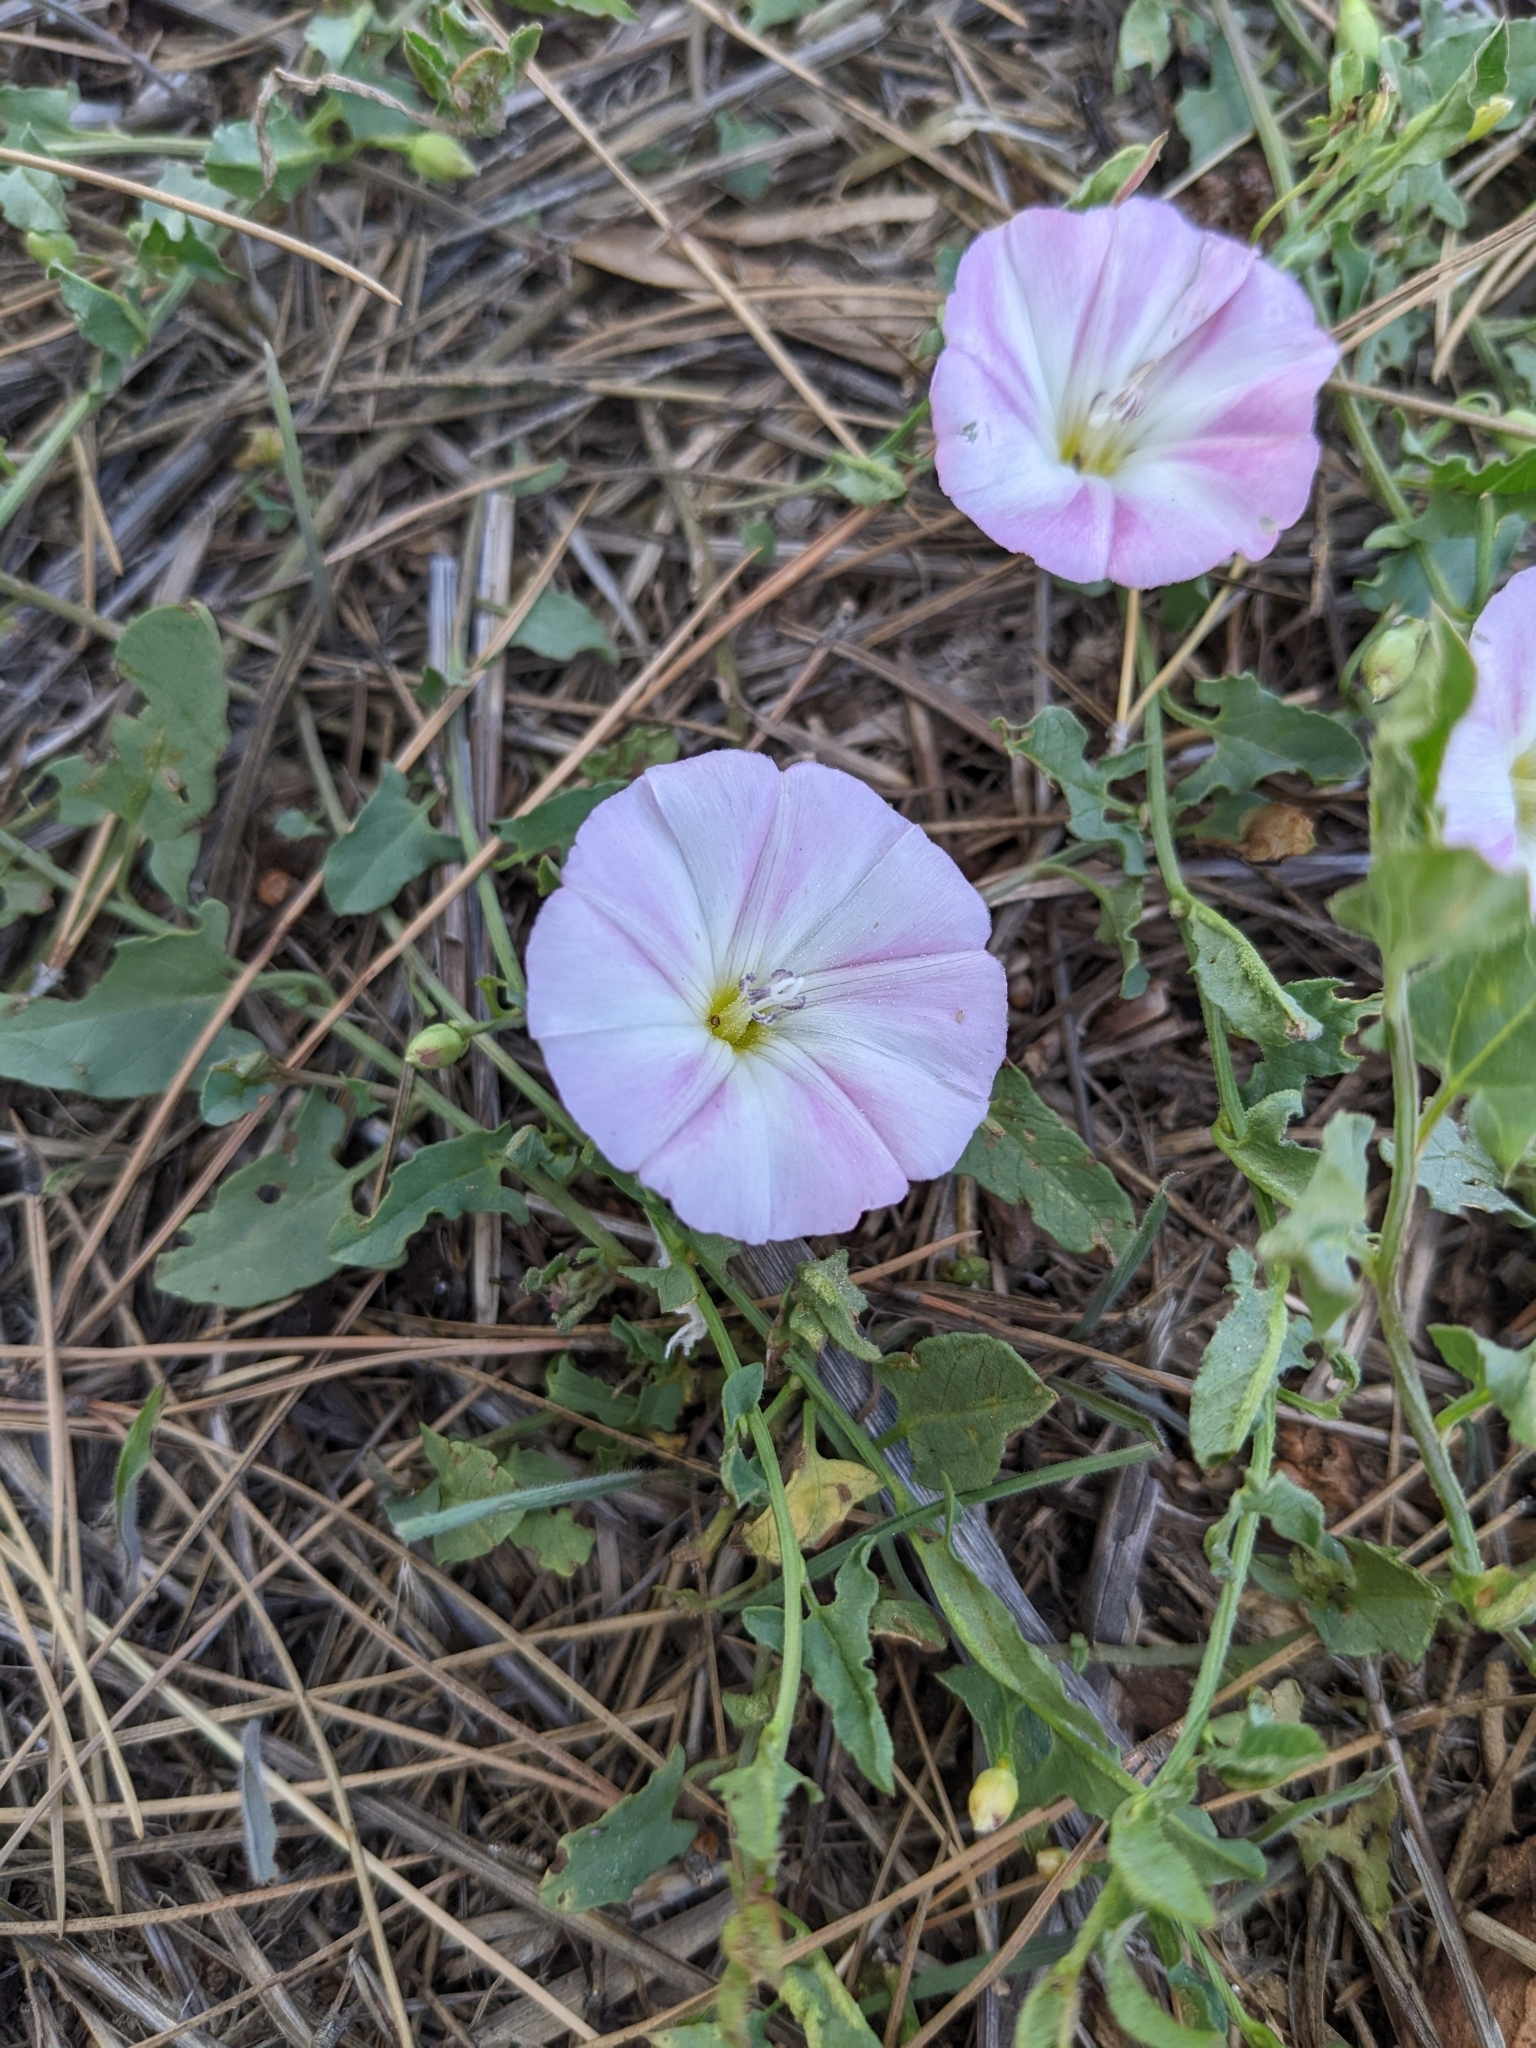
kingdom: Plantae
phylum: Tracheophyta
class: Magnoliopsida
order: Solanales
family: Convolvulaceae
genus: Convolvulus
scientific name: Convolvulus arvensis
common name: Field bindweed
